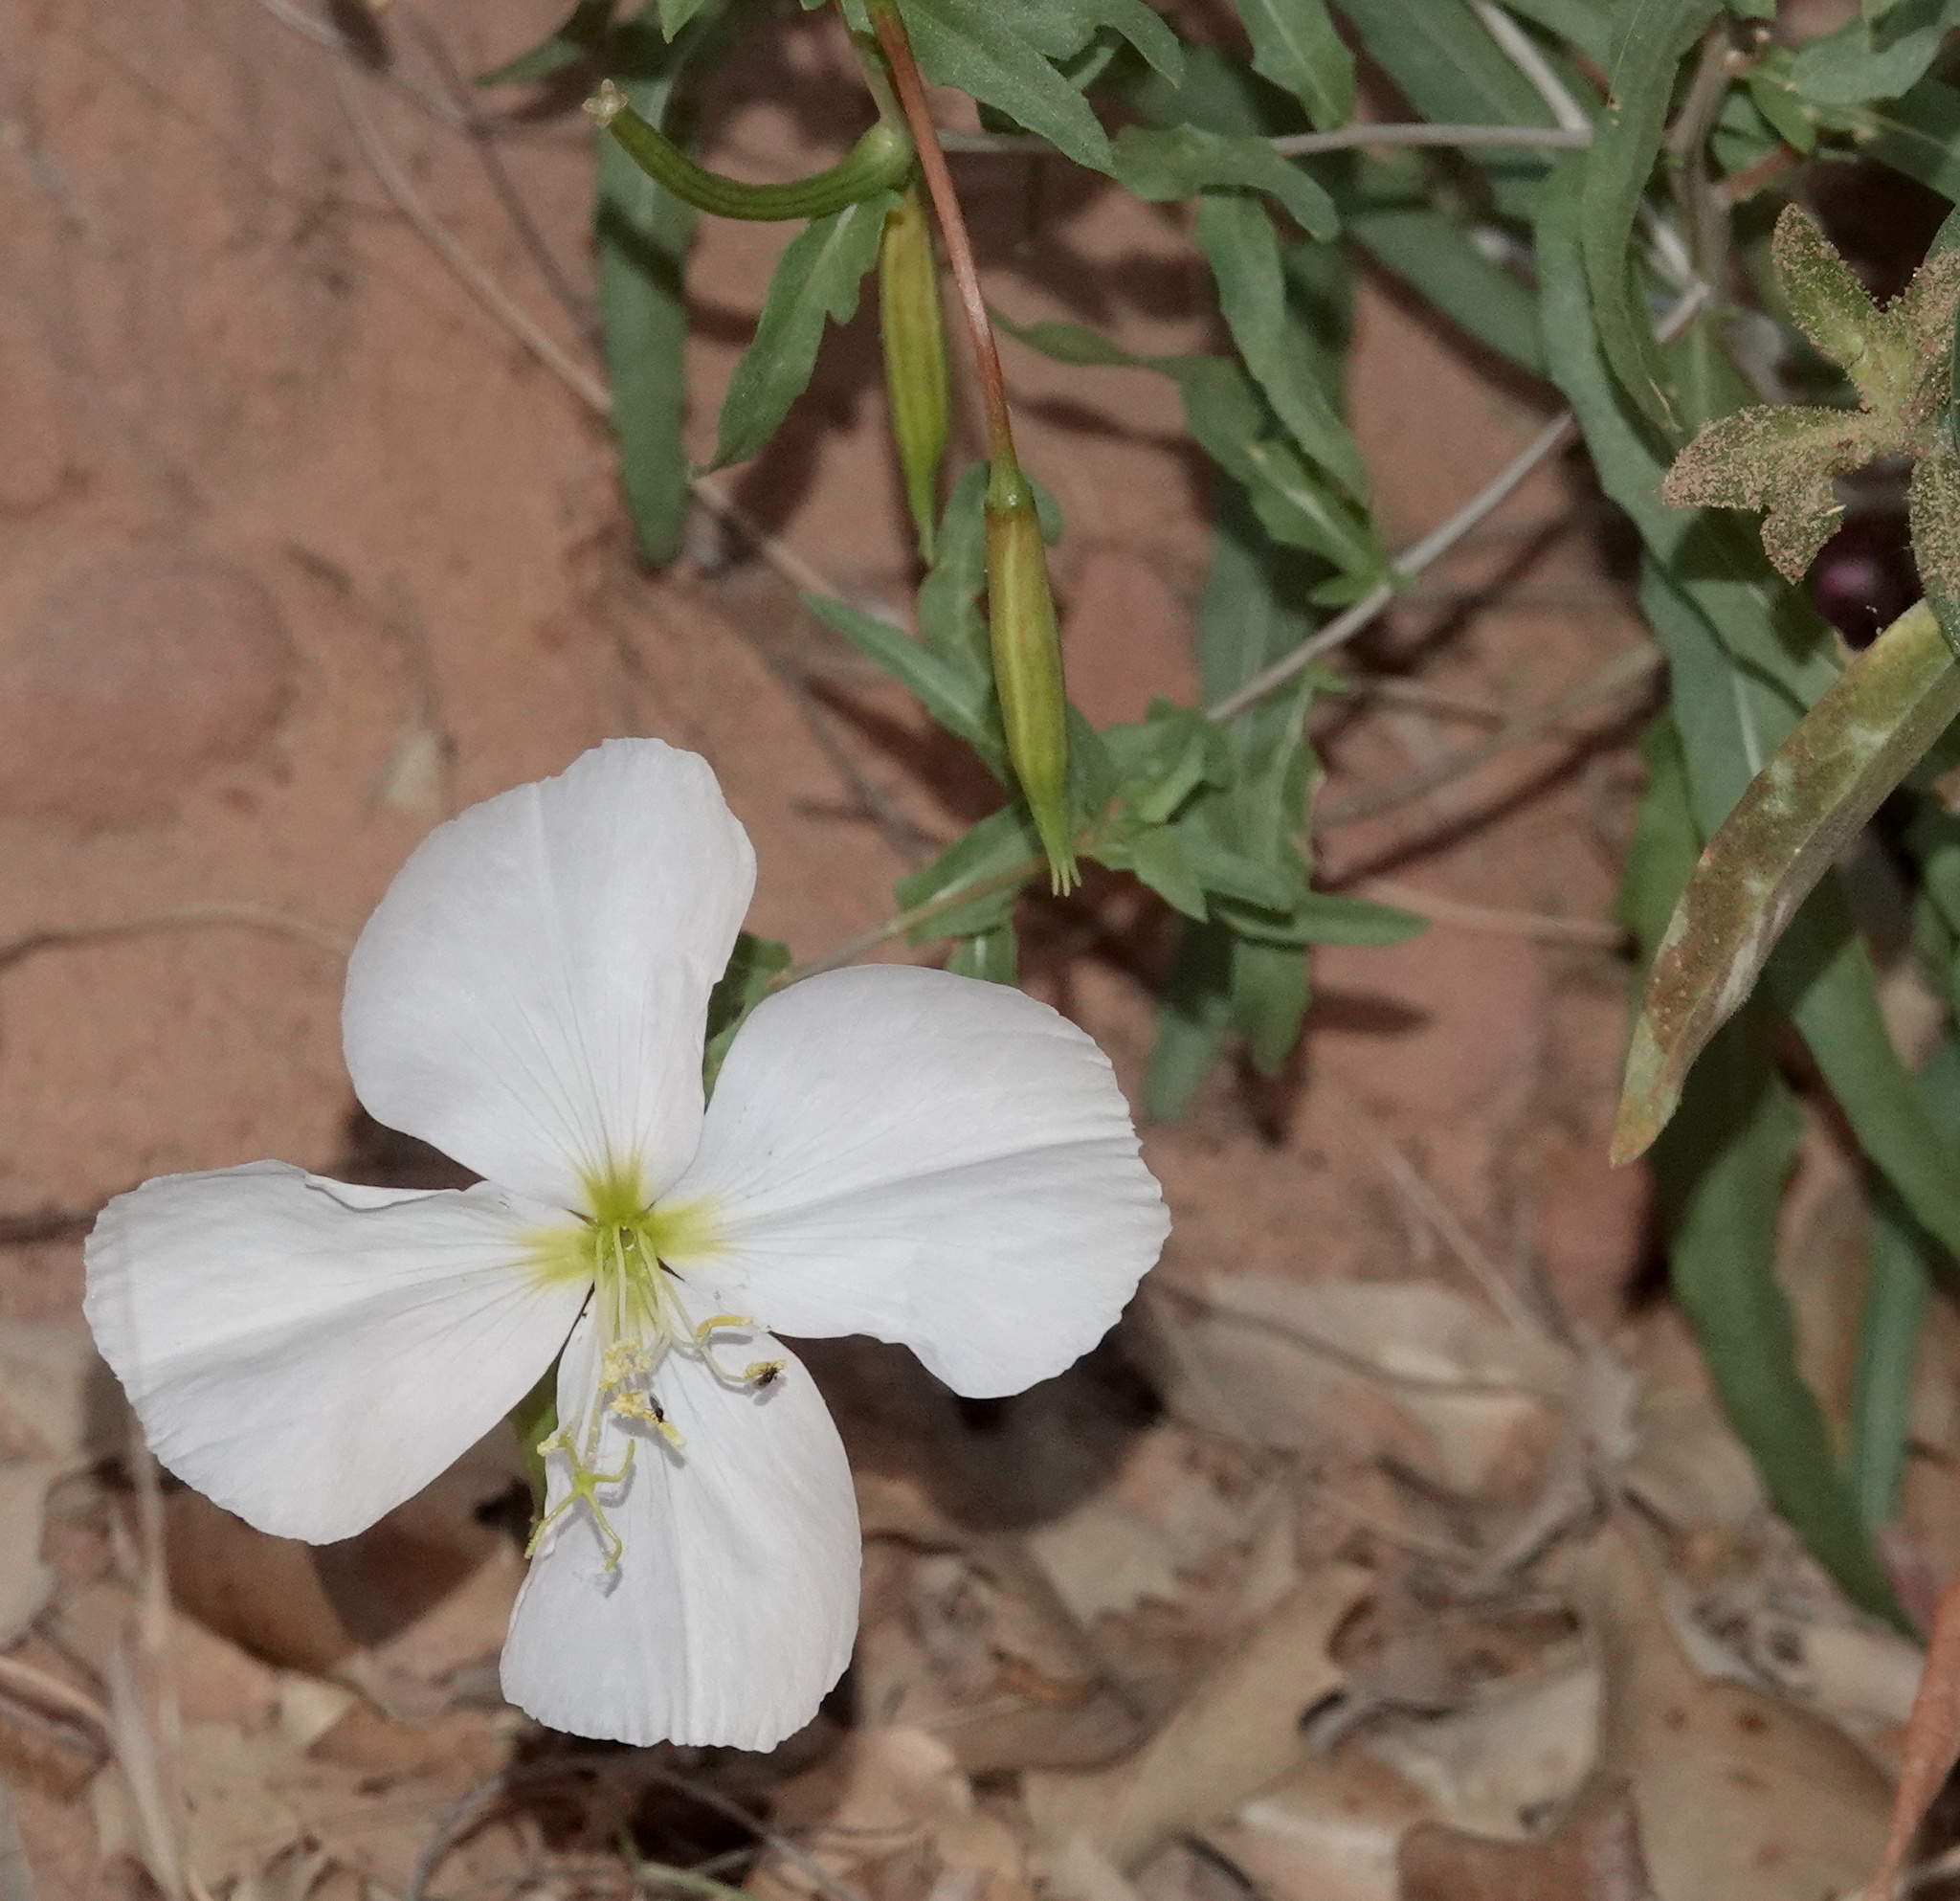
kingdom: Plantae
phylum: Tracheophyta
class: Magnoliopsida
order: Myrtales
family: Onagraceae
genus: Oenothera
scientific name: Oenothera pallida
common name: Pale evening-primrose
